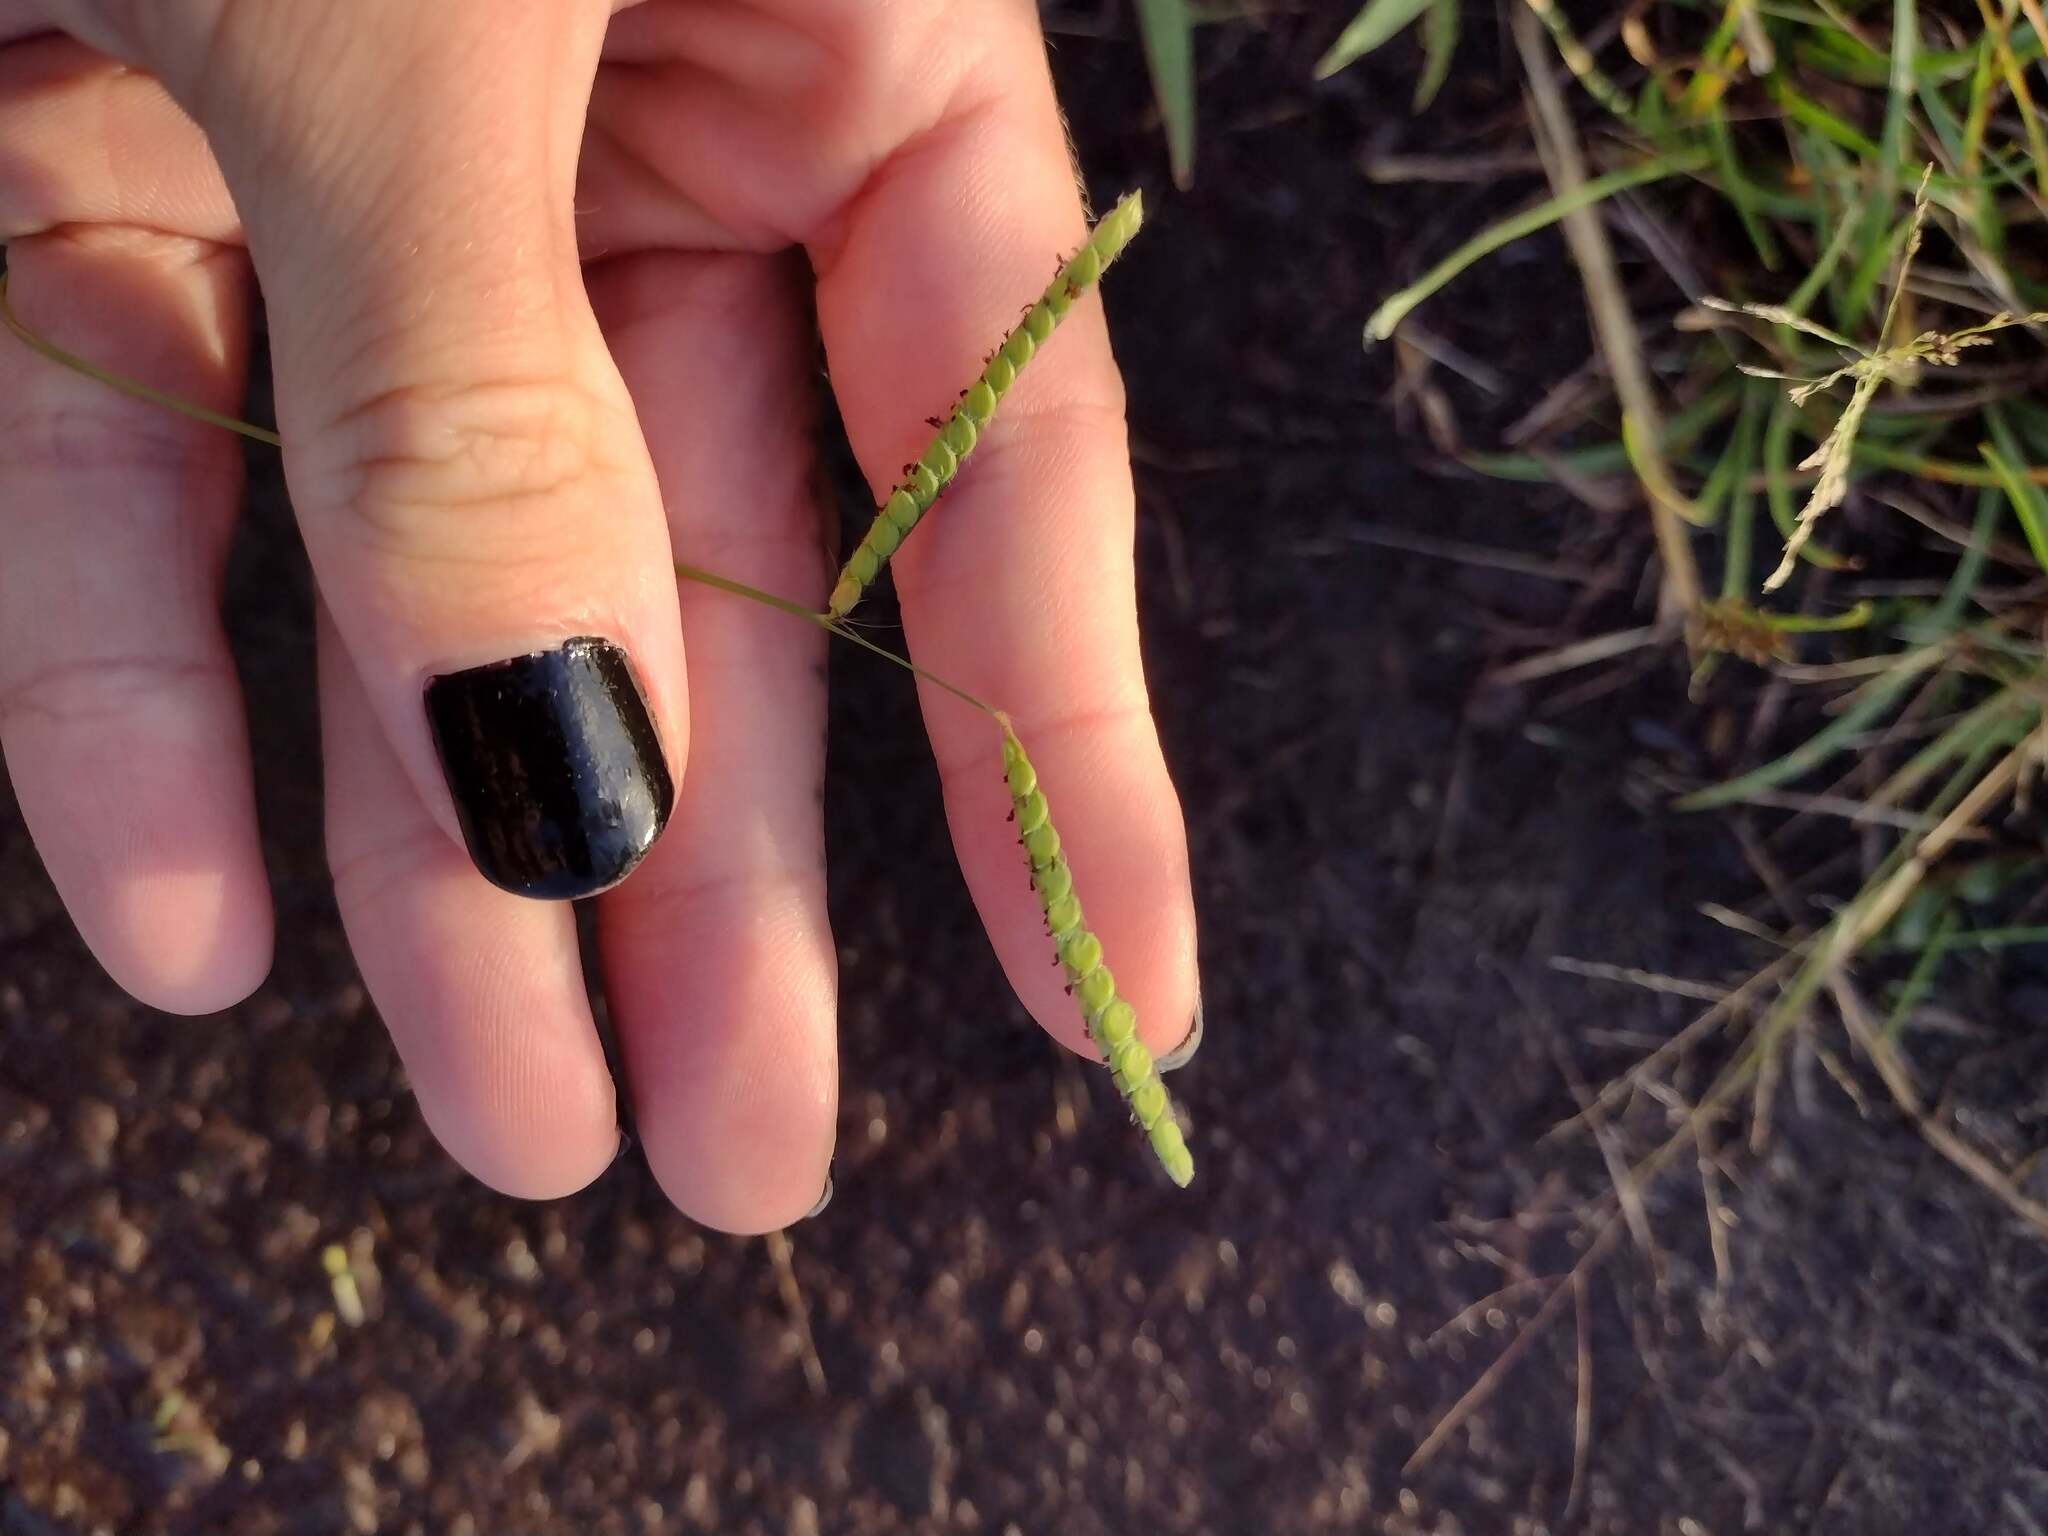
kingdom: Plantae
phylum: Tracheophyta
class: Liliopsida
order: Poales
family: Poaceae
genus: Paspalum
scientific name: Paspalum dilatatum
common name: Dallisgrass
